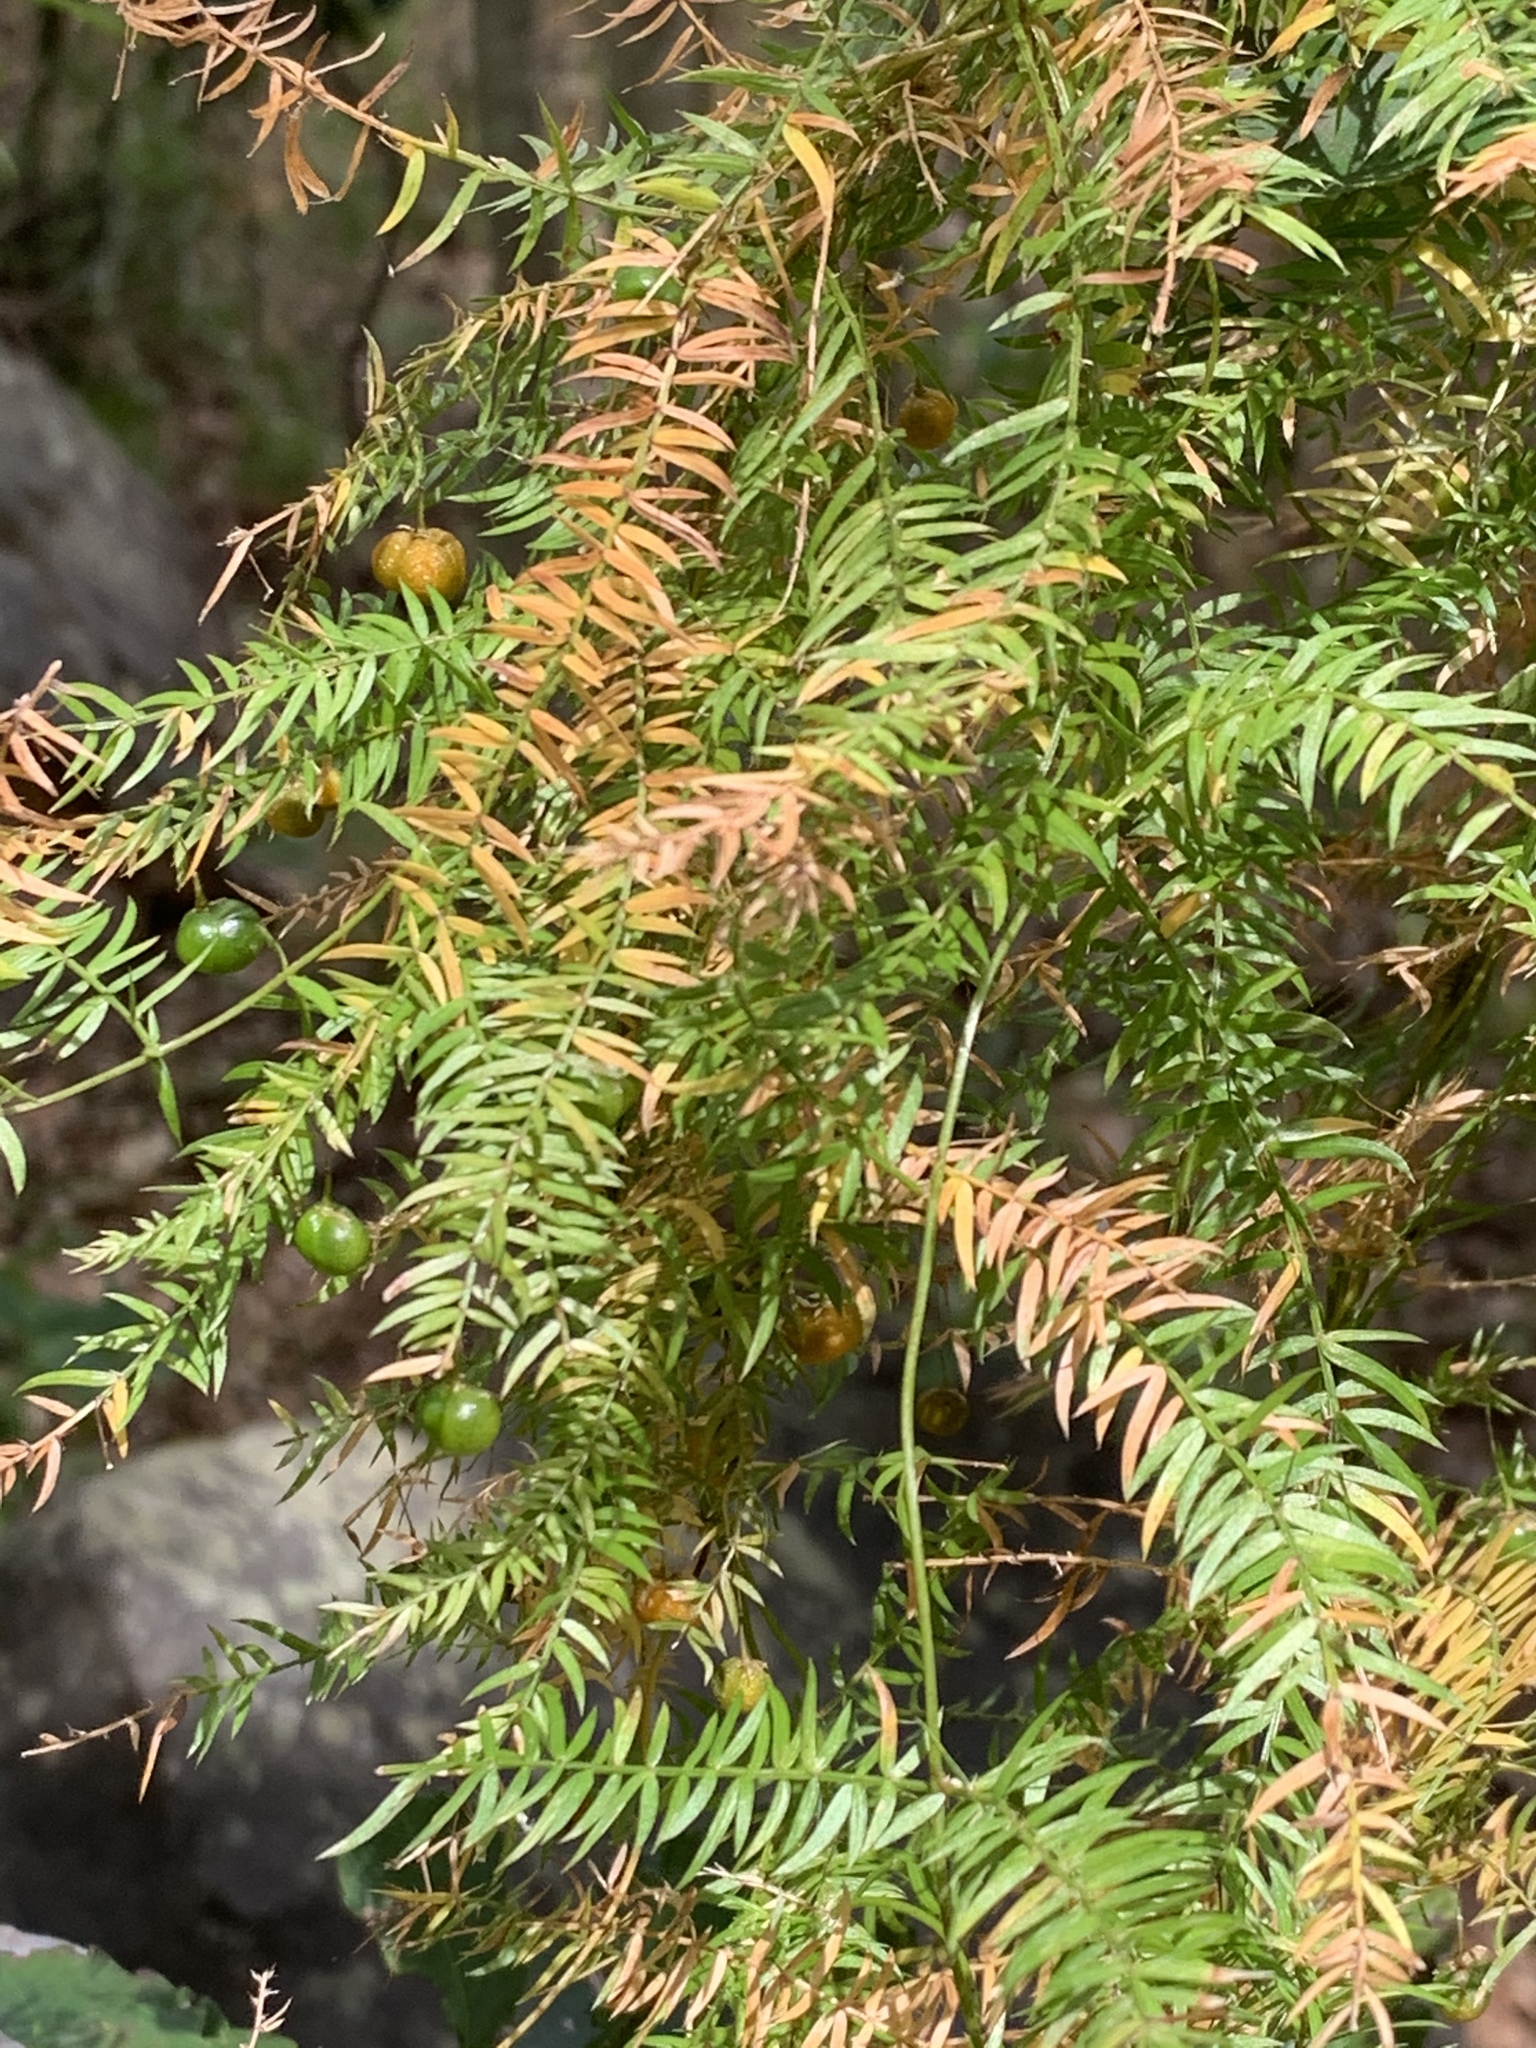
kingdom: Plantae
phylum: Tracheophyta
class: Liliopsida
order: Asparagales
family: Asparagaceae
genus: Asparagus
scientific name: Asparagus scandens
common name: Asparagus-fern
